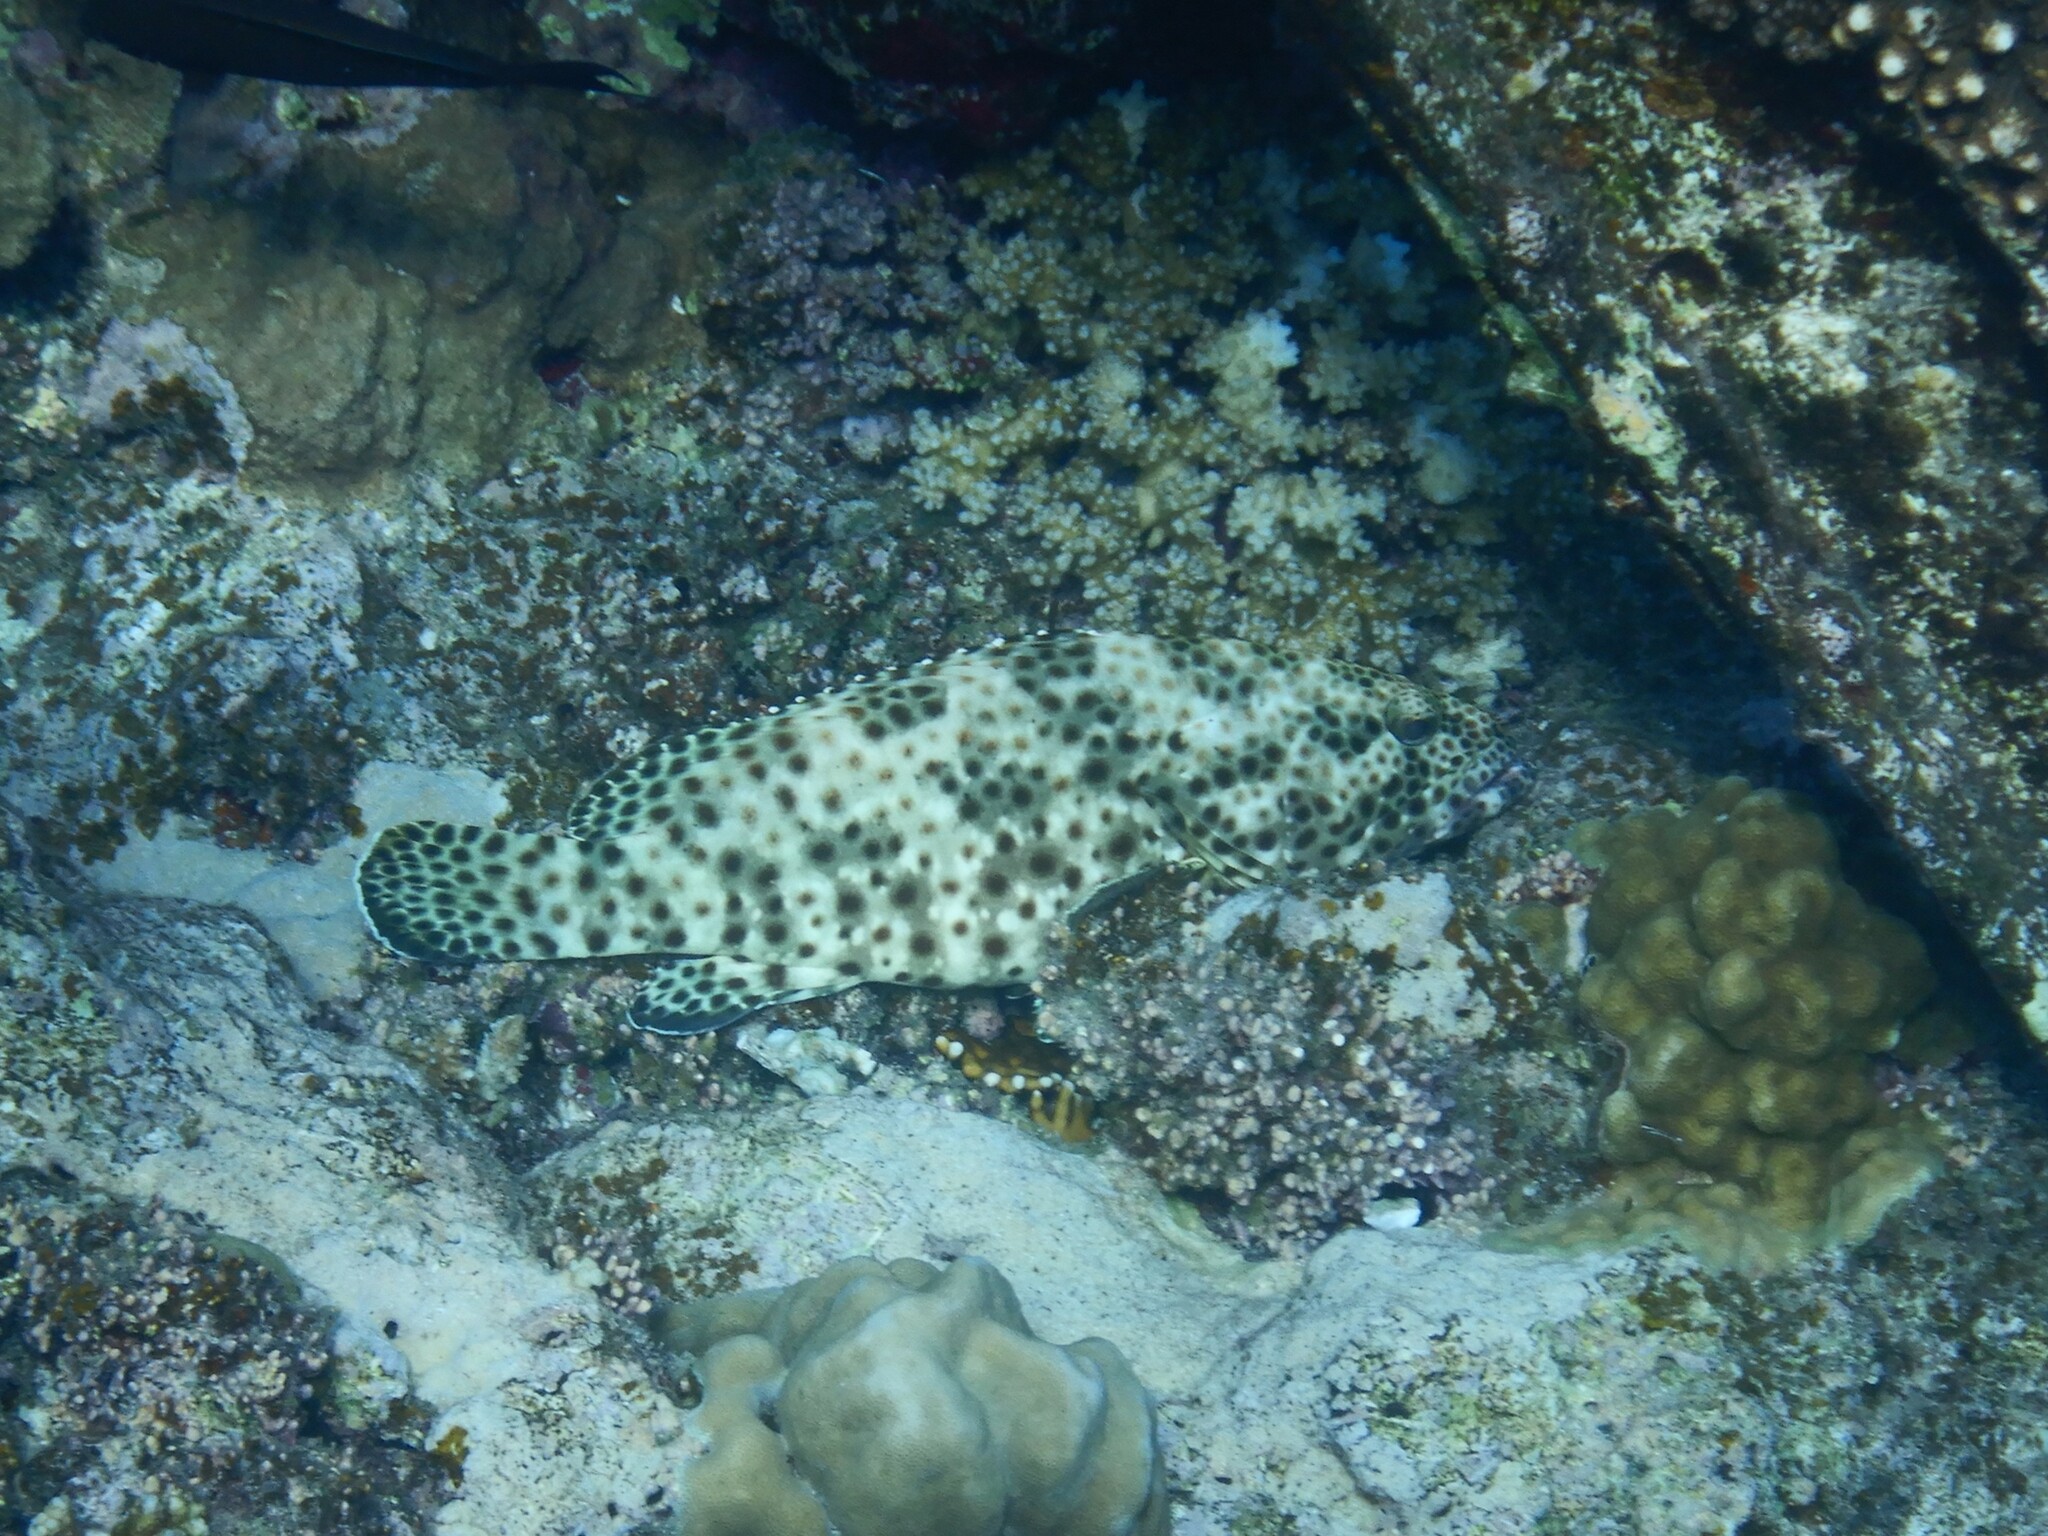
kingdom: Animalia
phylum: Chordata
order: Perciformes
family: Serranidae
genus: Epinephelus
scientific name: Epinephelus tauvina
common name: Greasy grouper
